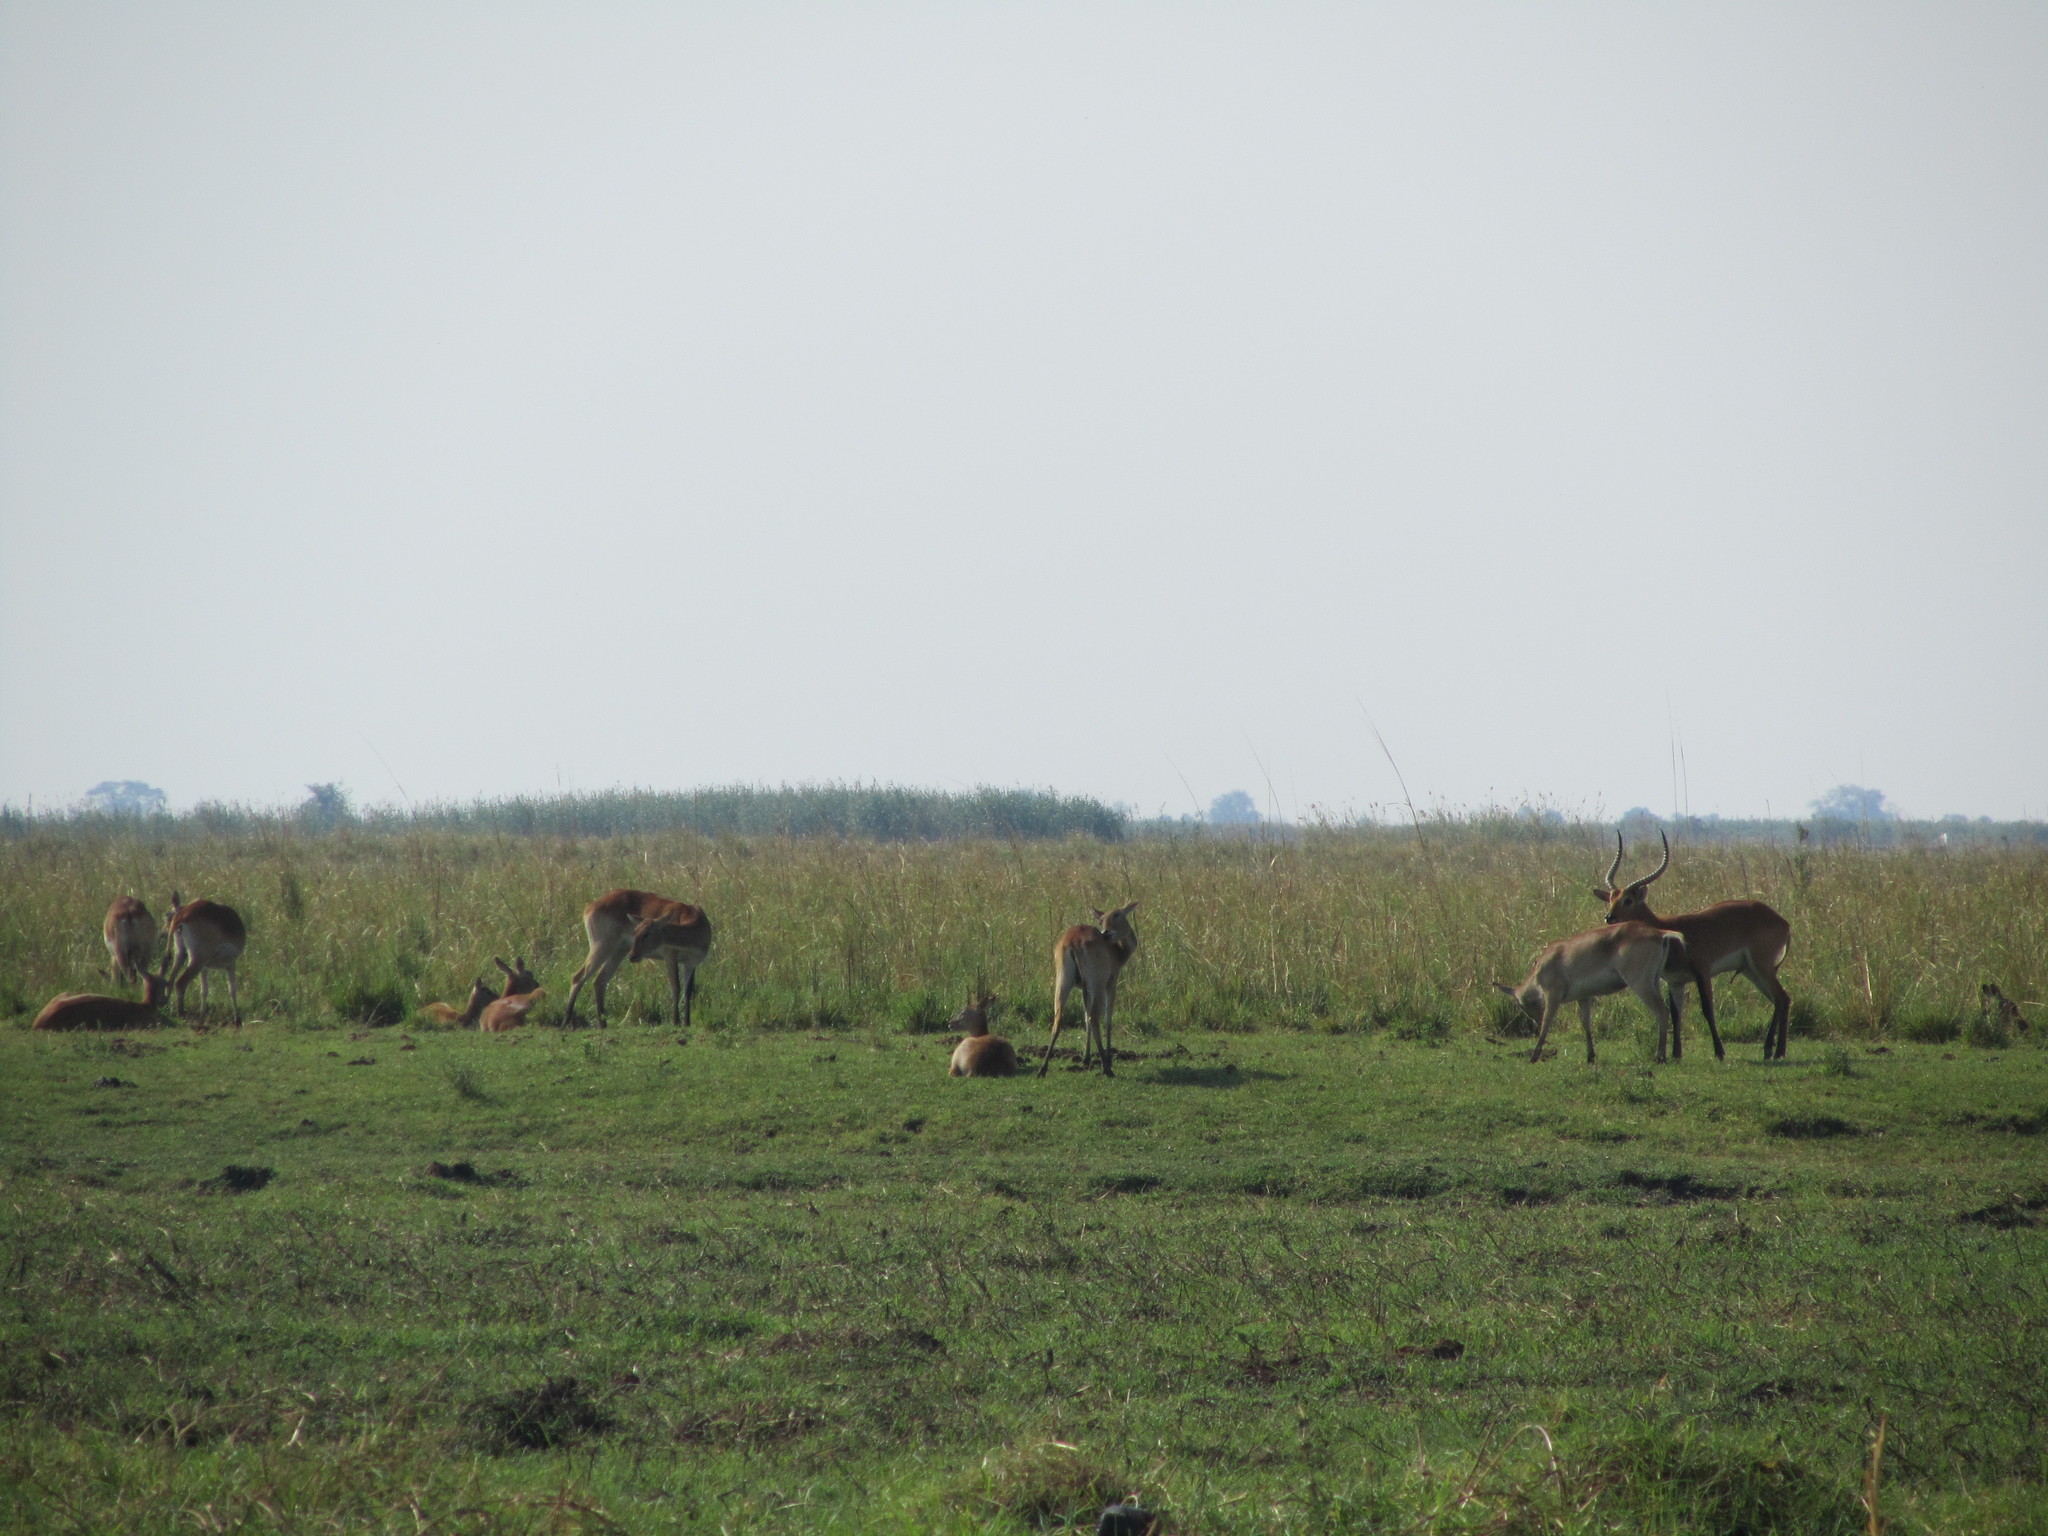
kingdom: Animalia
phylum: Chordata
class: Mammalia
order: Artiodactyla
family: Bovidae
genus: Kobus
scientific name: Kobus leche
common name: Lechwe
